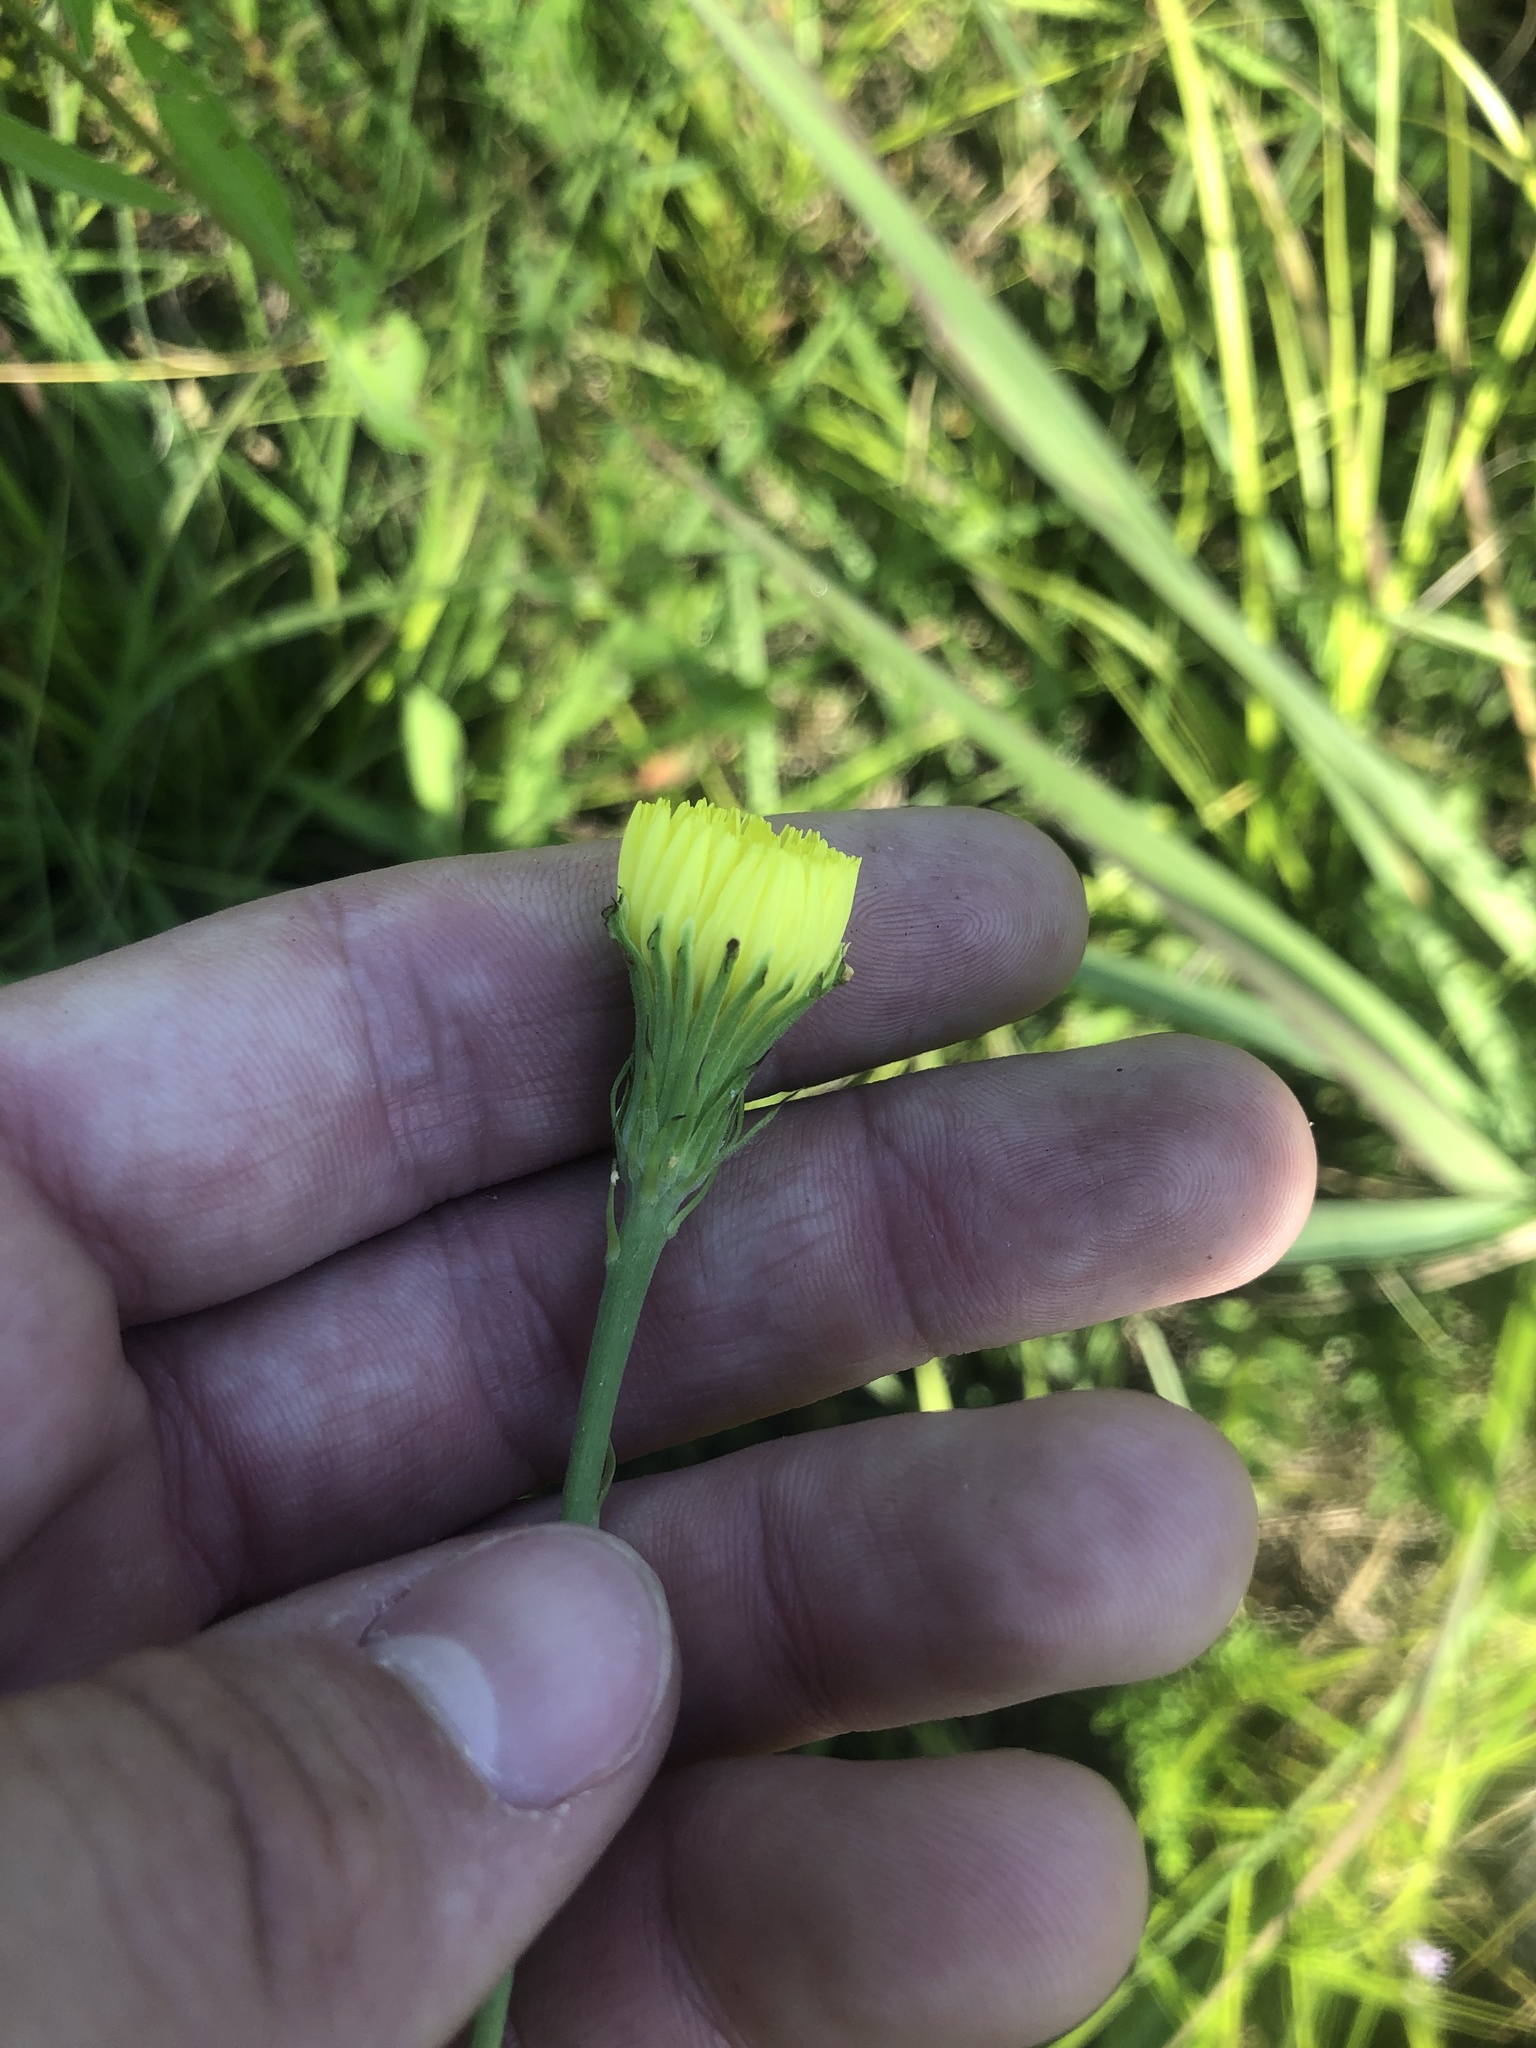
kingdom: Plantae
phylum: Tracheophyta
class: Magnoliopsida
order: Asterales
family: Asteraceae
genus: Pyrrhopappus
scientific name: Pyrrhopappus carolinianus
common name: Carolina desert-chicory
